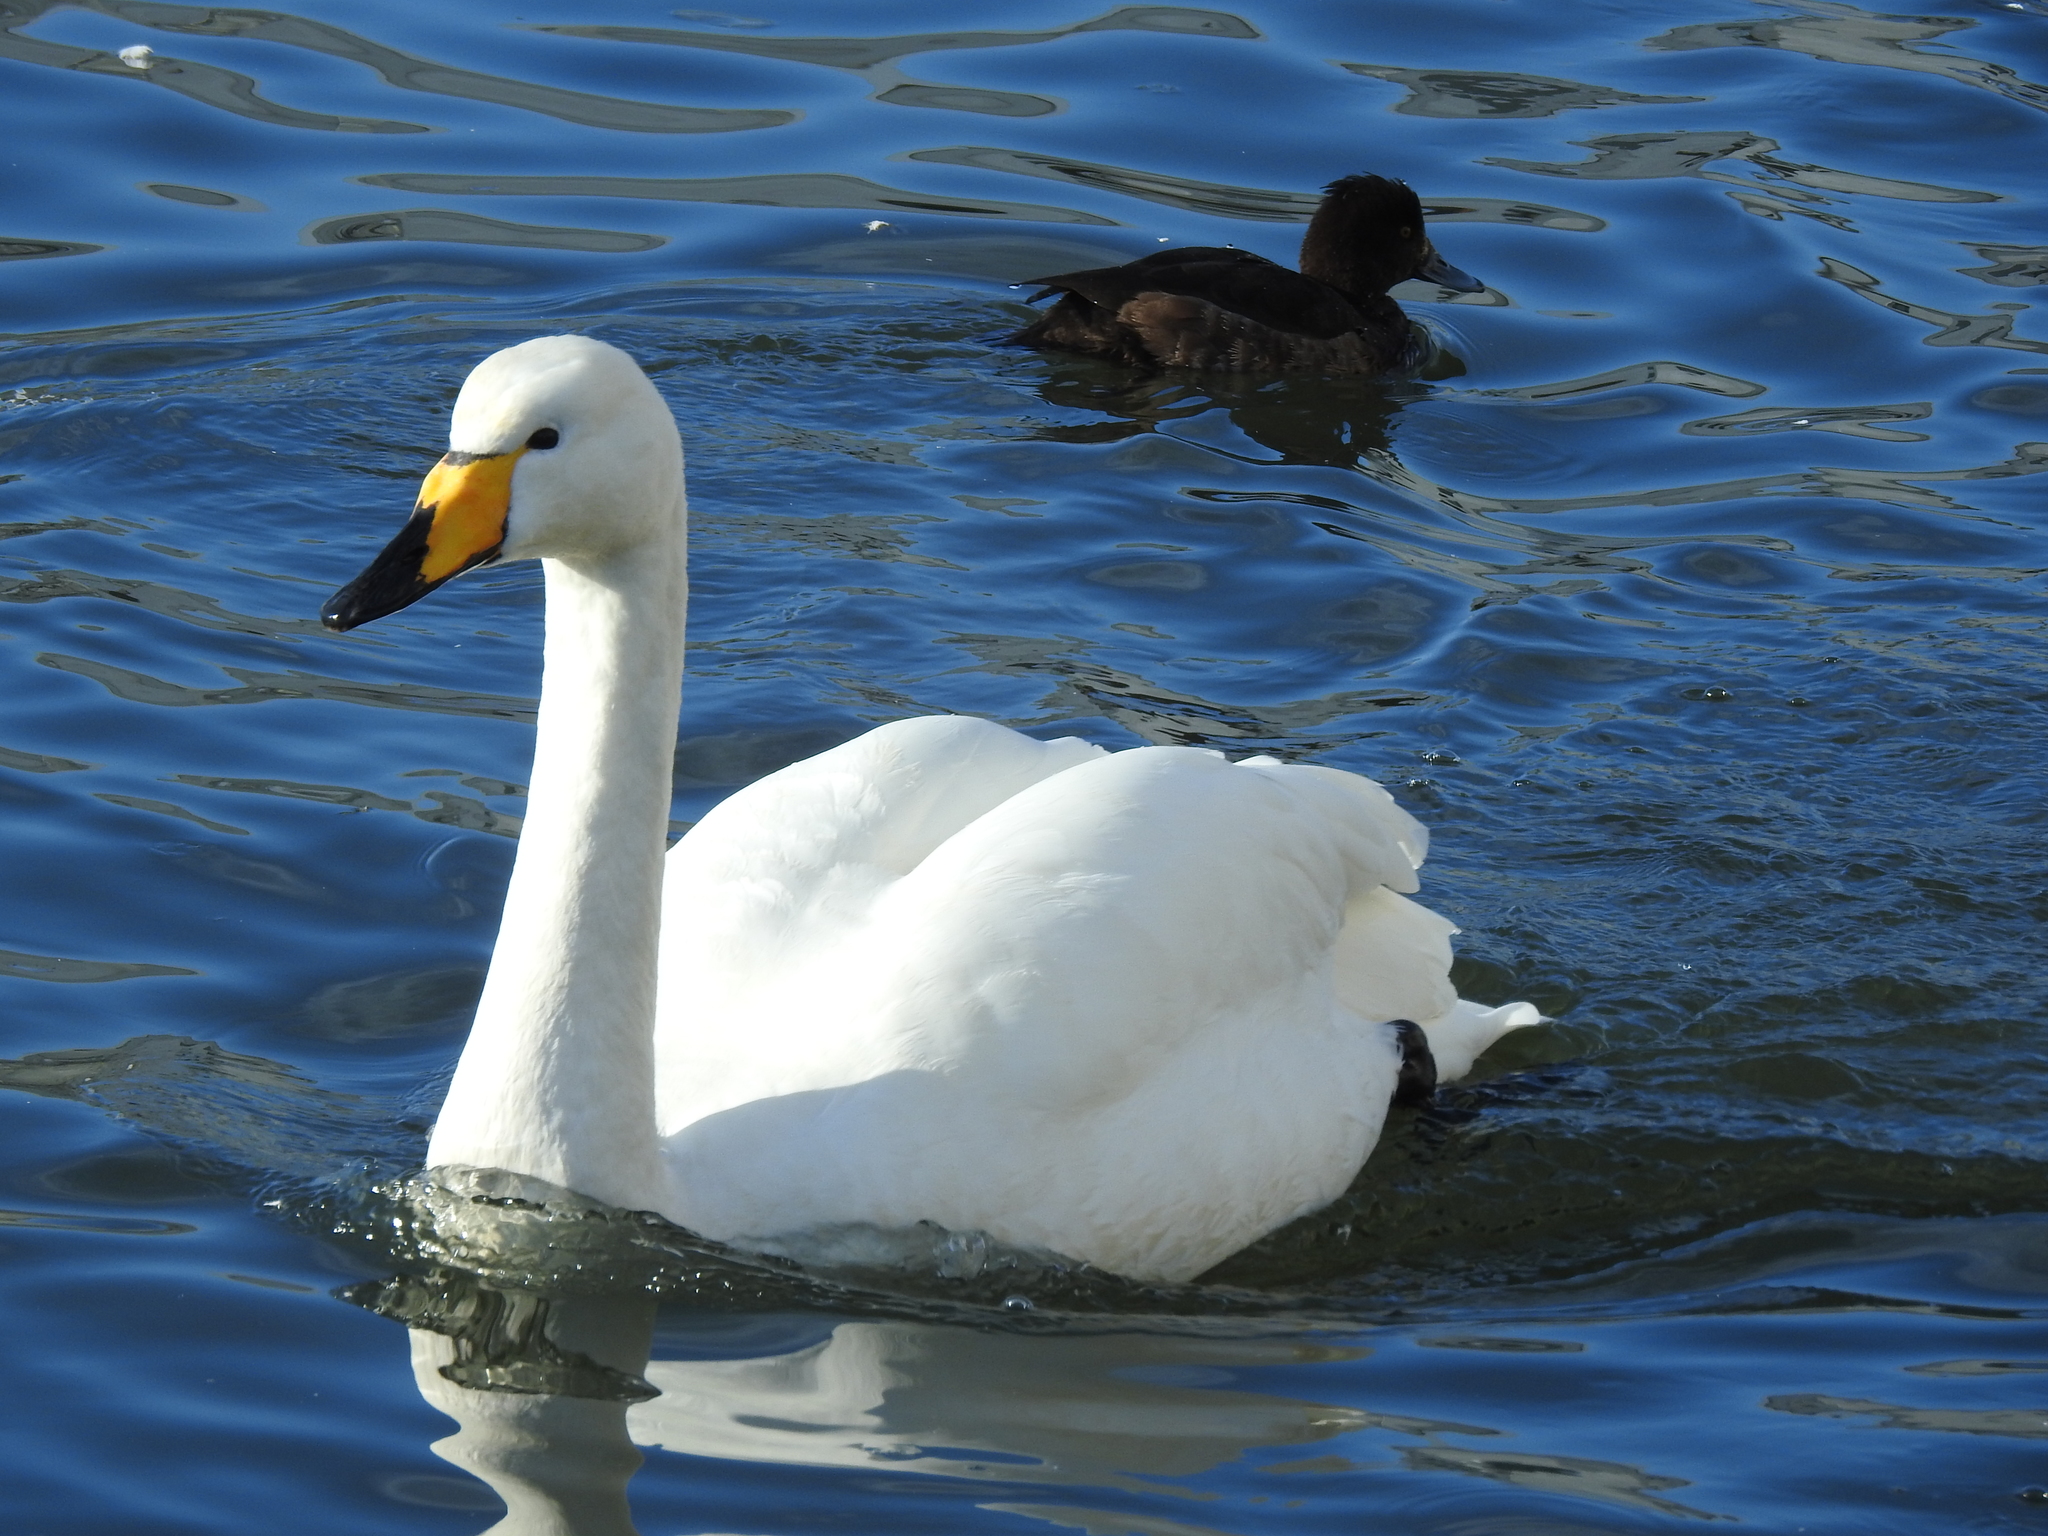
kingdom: Animalia
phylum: Chordata
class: Aves
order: Anseriformes
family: Anatidae
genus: Cygnus
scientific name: Cygnus cygnus
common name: Whooper swan
